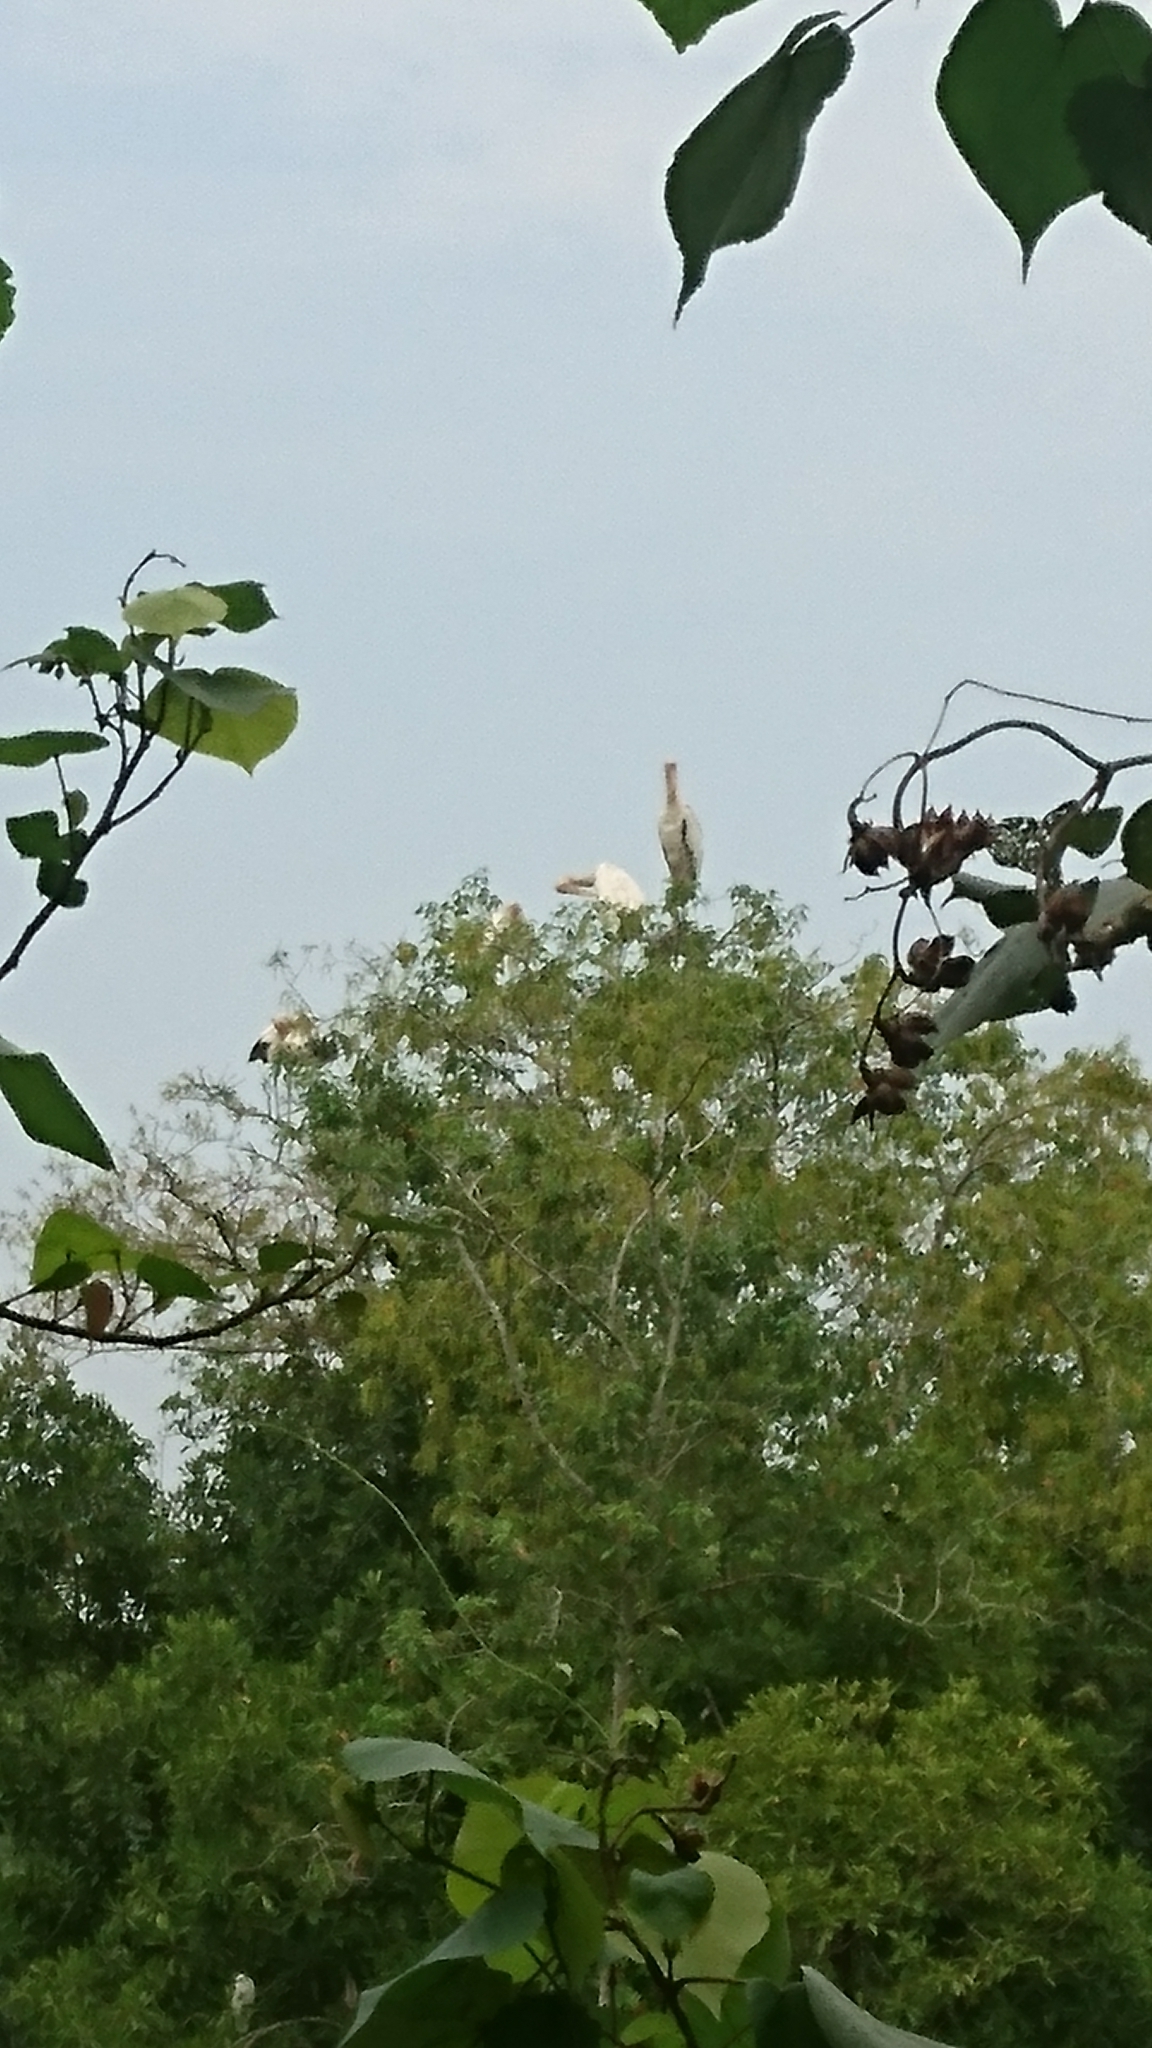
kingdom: Animalia
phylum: Chordata
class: Aves
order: Ciconiiformes
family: Ciconiidae
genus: Mycteria
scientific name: Mycteria cinerea
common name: Milky stork
